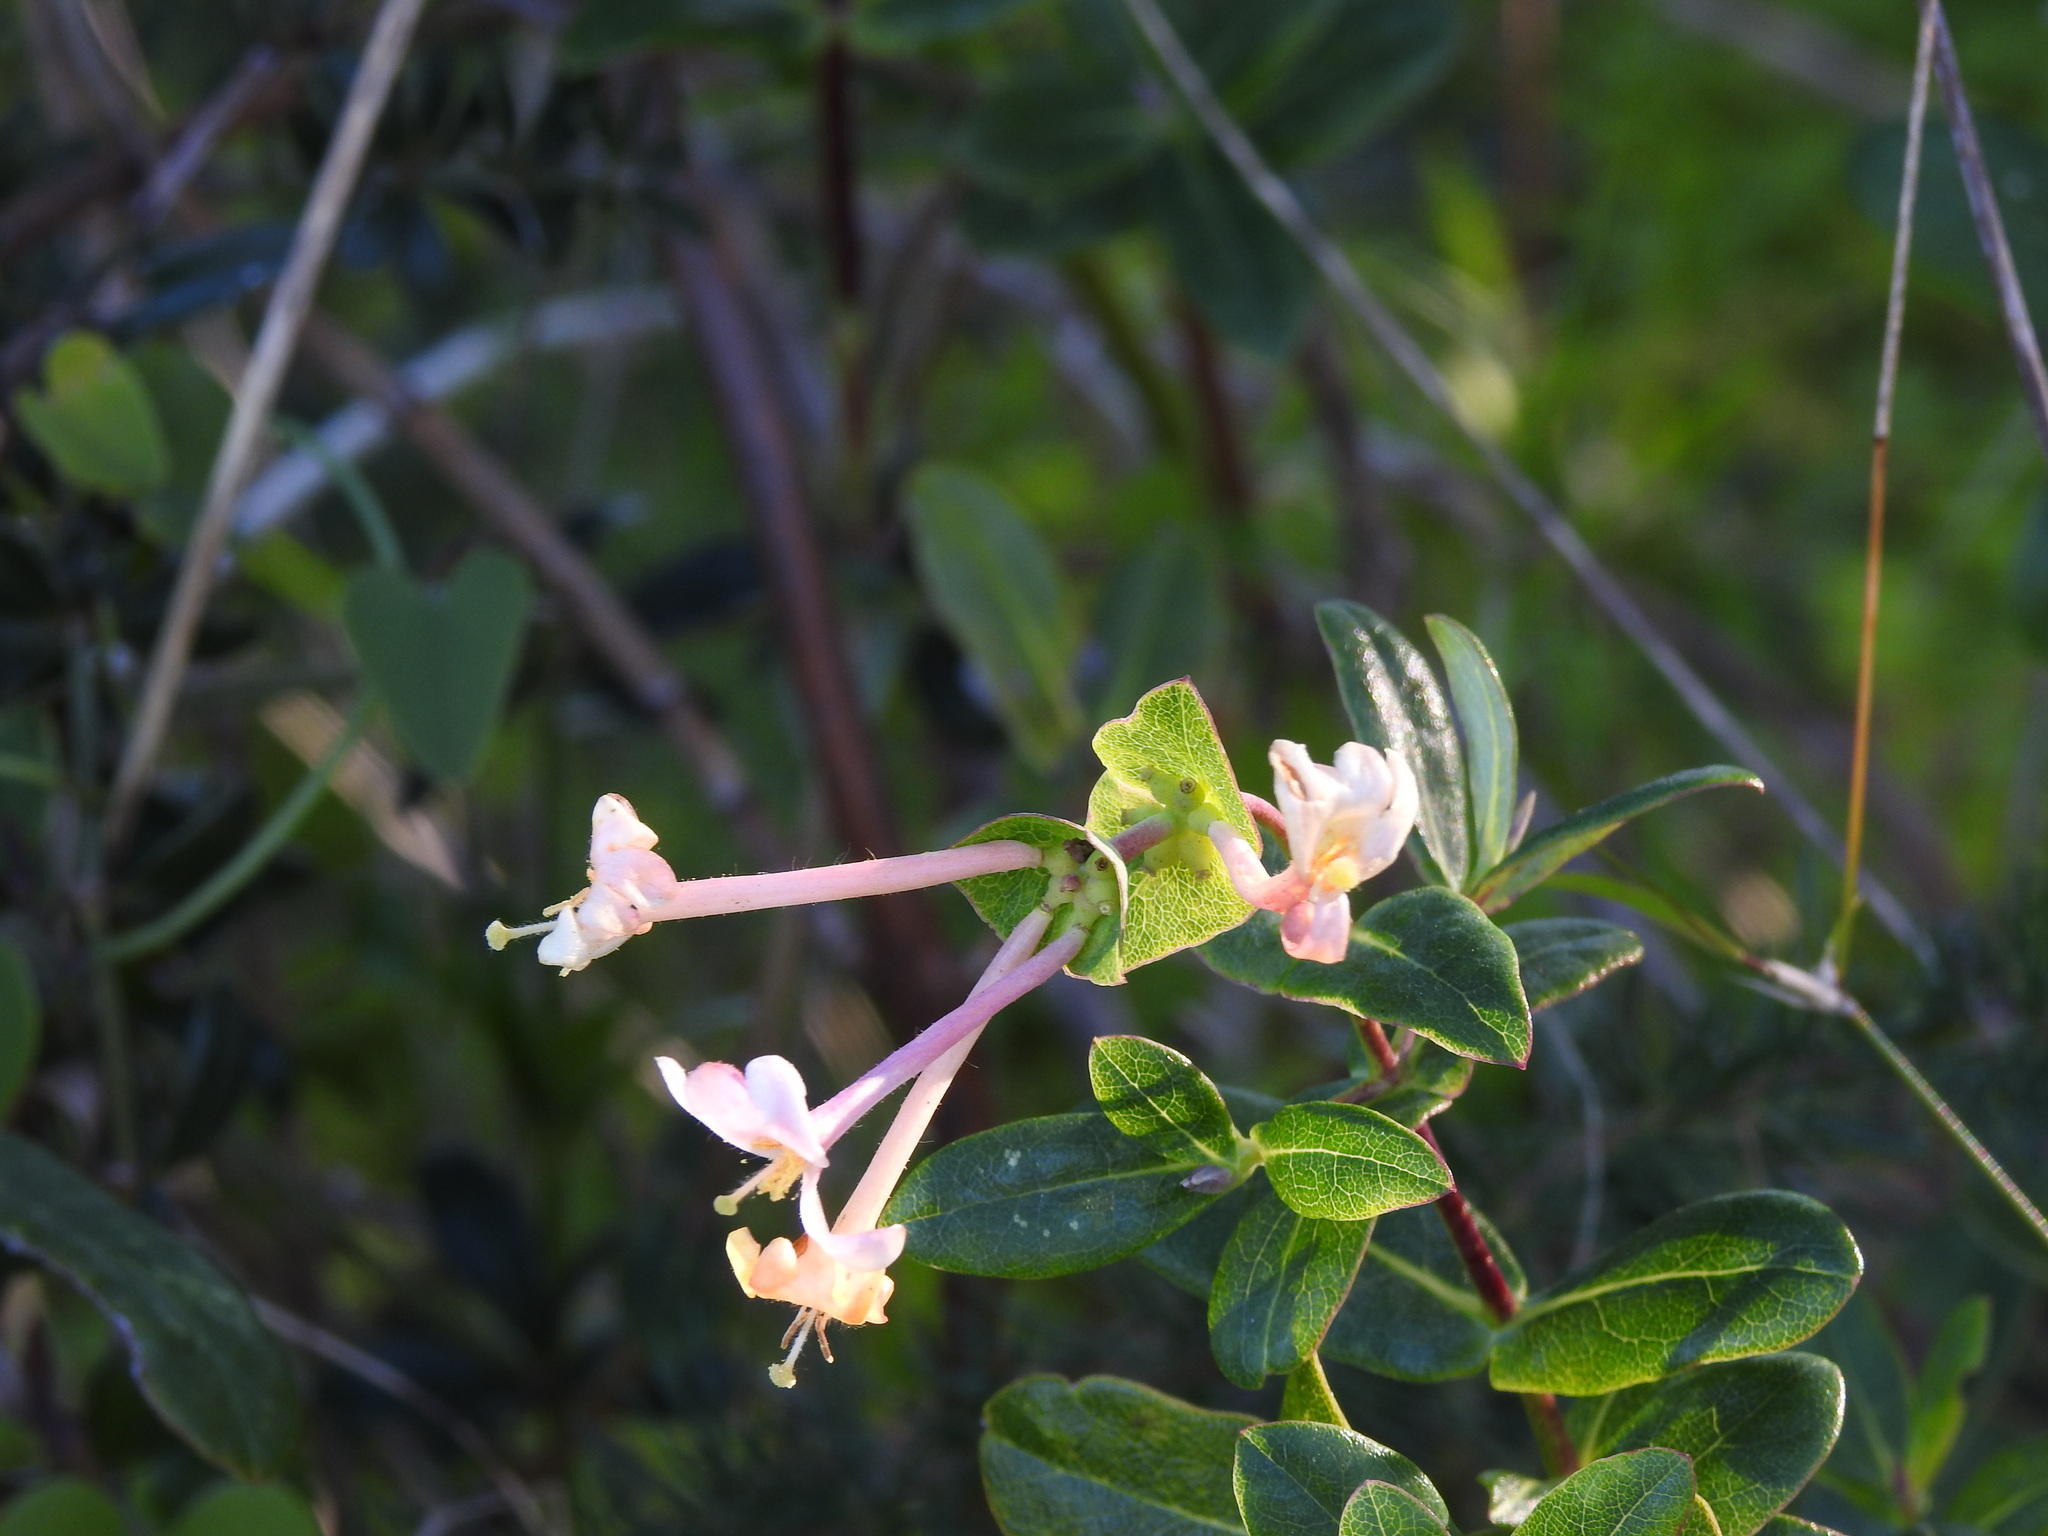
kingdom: Plantae
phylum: Tracheophyta
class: Magnoliopsida
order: Dipsacales
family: Caprifoliaceae
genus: Lonicera
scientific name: Lonicera implexa
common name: Minorca honeysuckle
